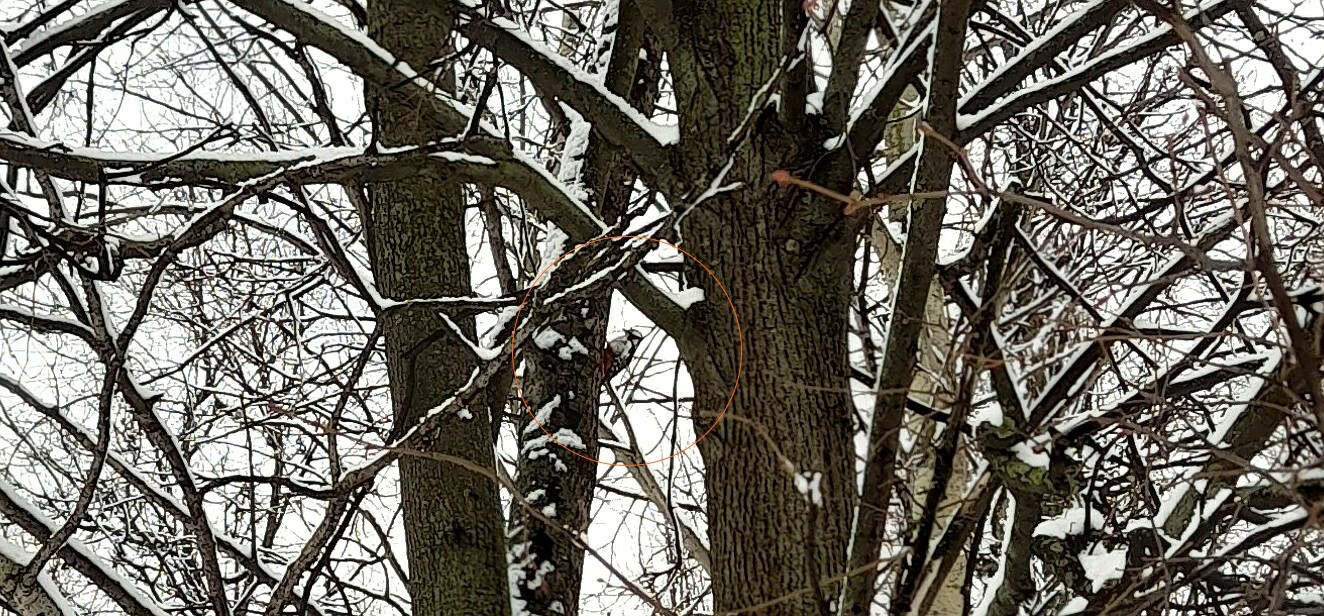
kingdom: Animalia
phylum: Chordata
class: Aves
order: Piciformes
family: Picidae
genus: Dendrocopos
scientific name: Dendrocopos major
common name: Great spotted woodpecker
